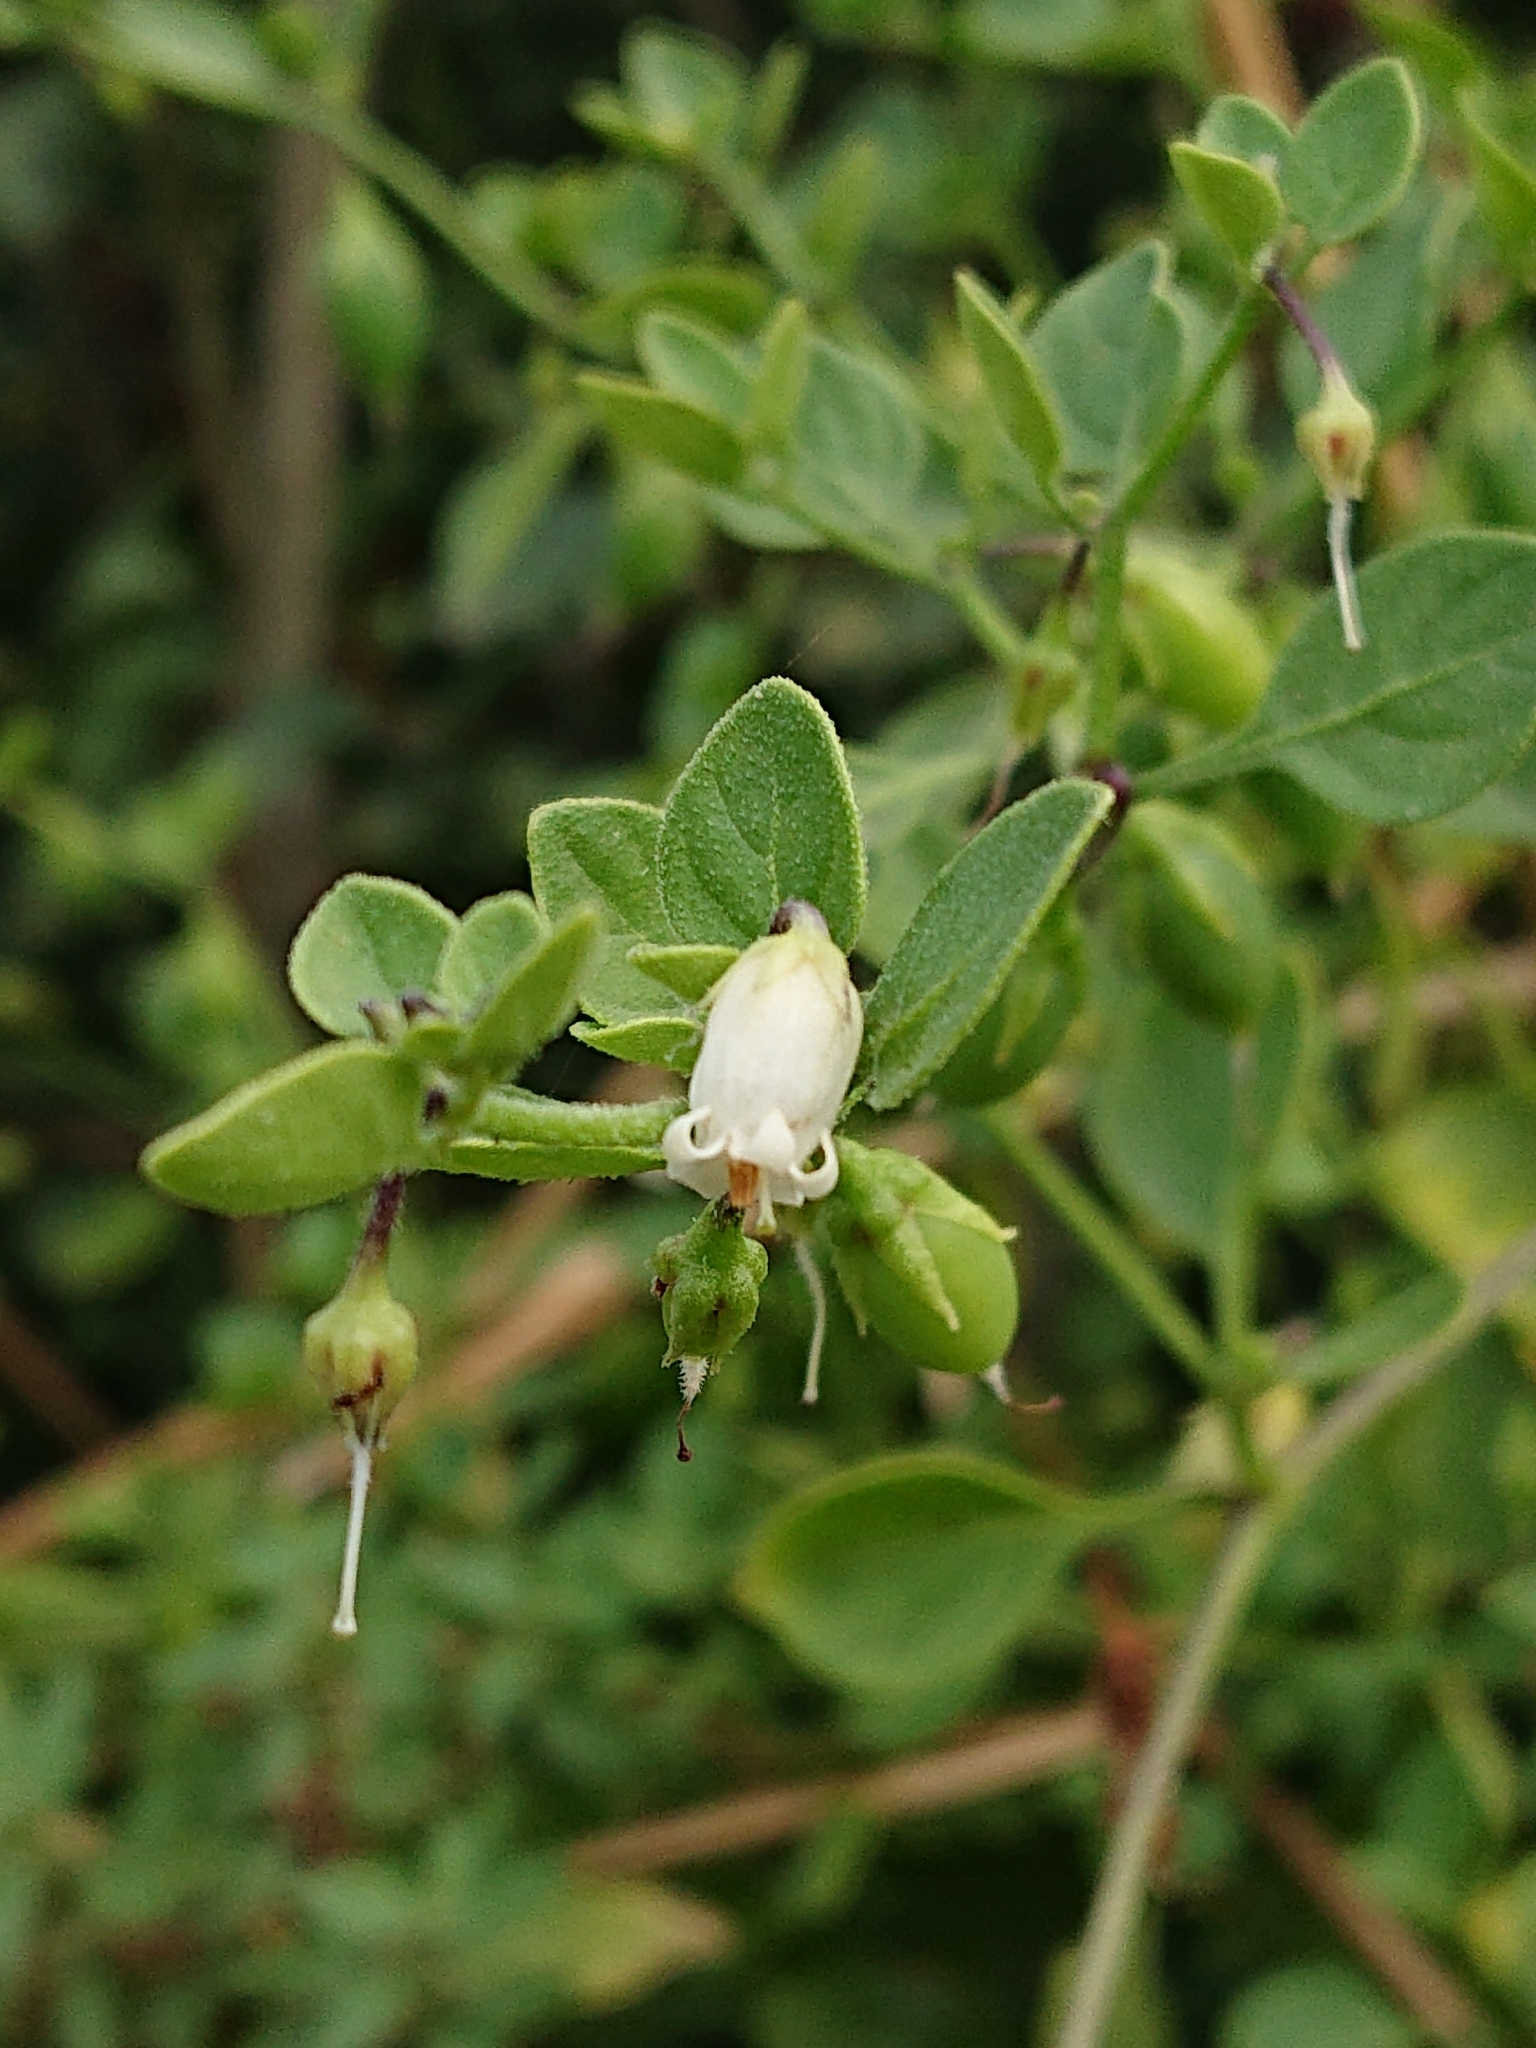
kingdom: Plantae
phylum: Tracheophyta
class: Magnoliopsida
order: Solanales
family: Solanaceae
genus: Salpichroa
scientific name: Salpichroa origanifolia
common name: Lily-of-the-valley-vine
